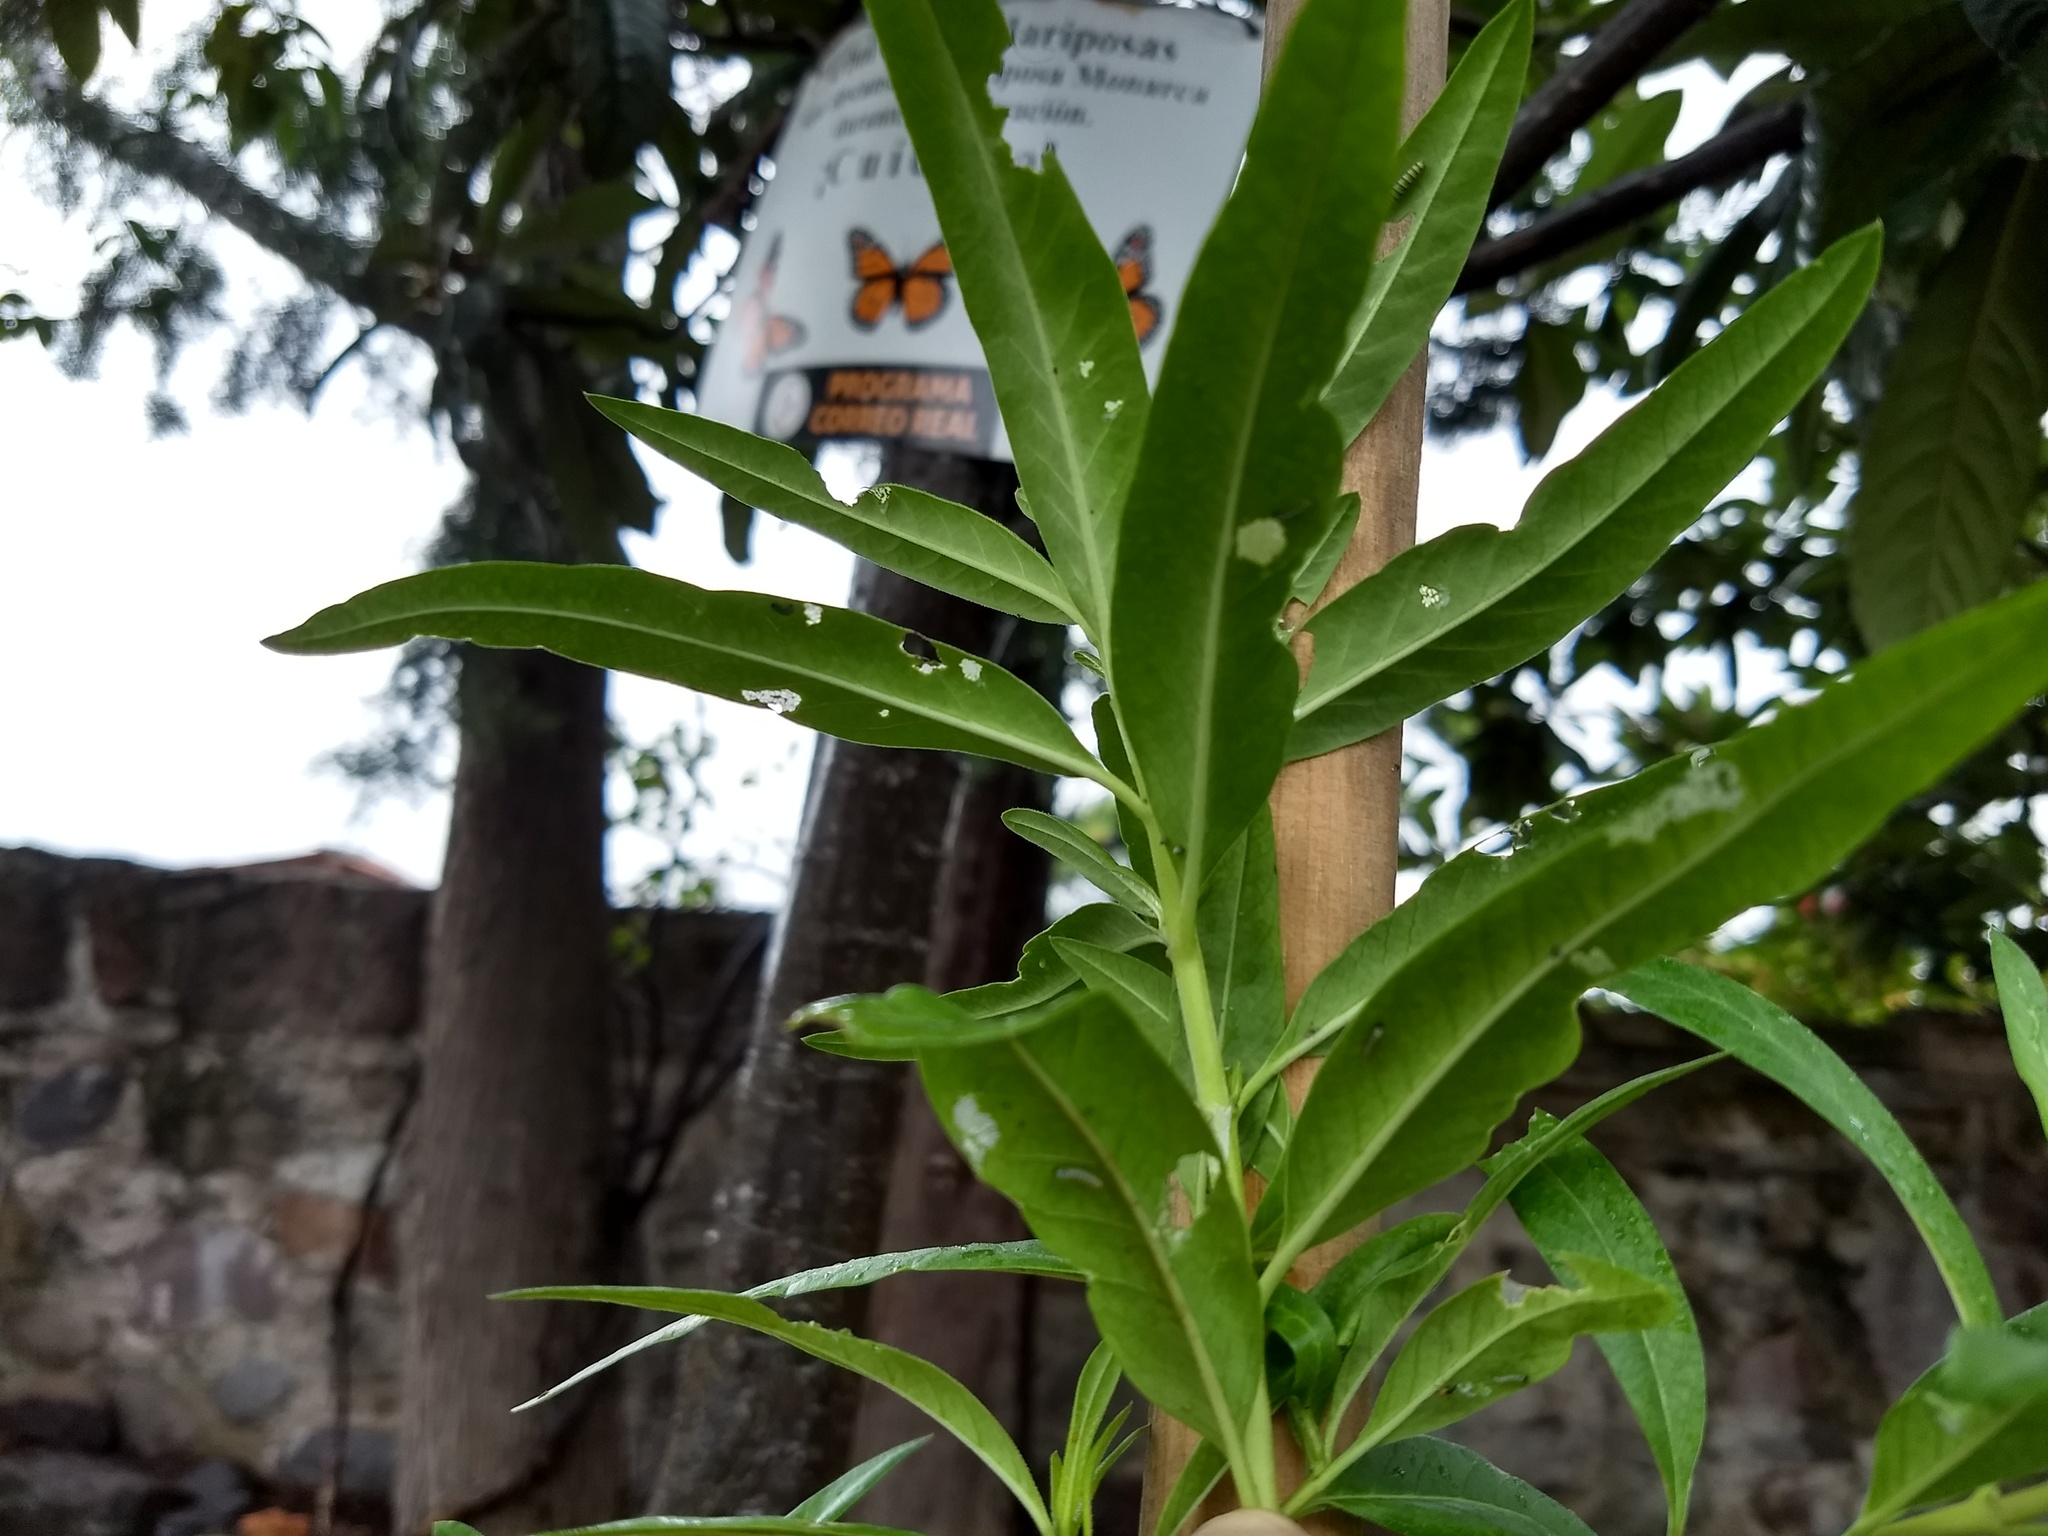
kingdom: Animalia
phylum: Arthropoda
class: Insecta
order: Lepidoptera
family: Nymphalidae
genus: Danaus
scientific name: Danaus plexippus
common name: Monarch
